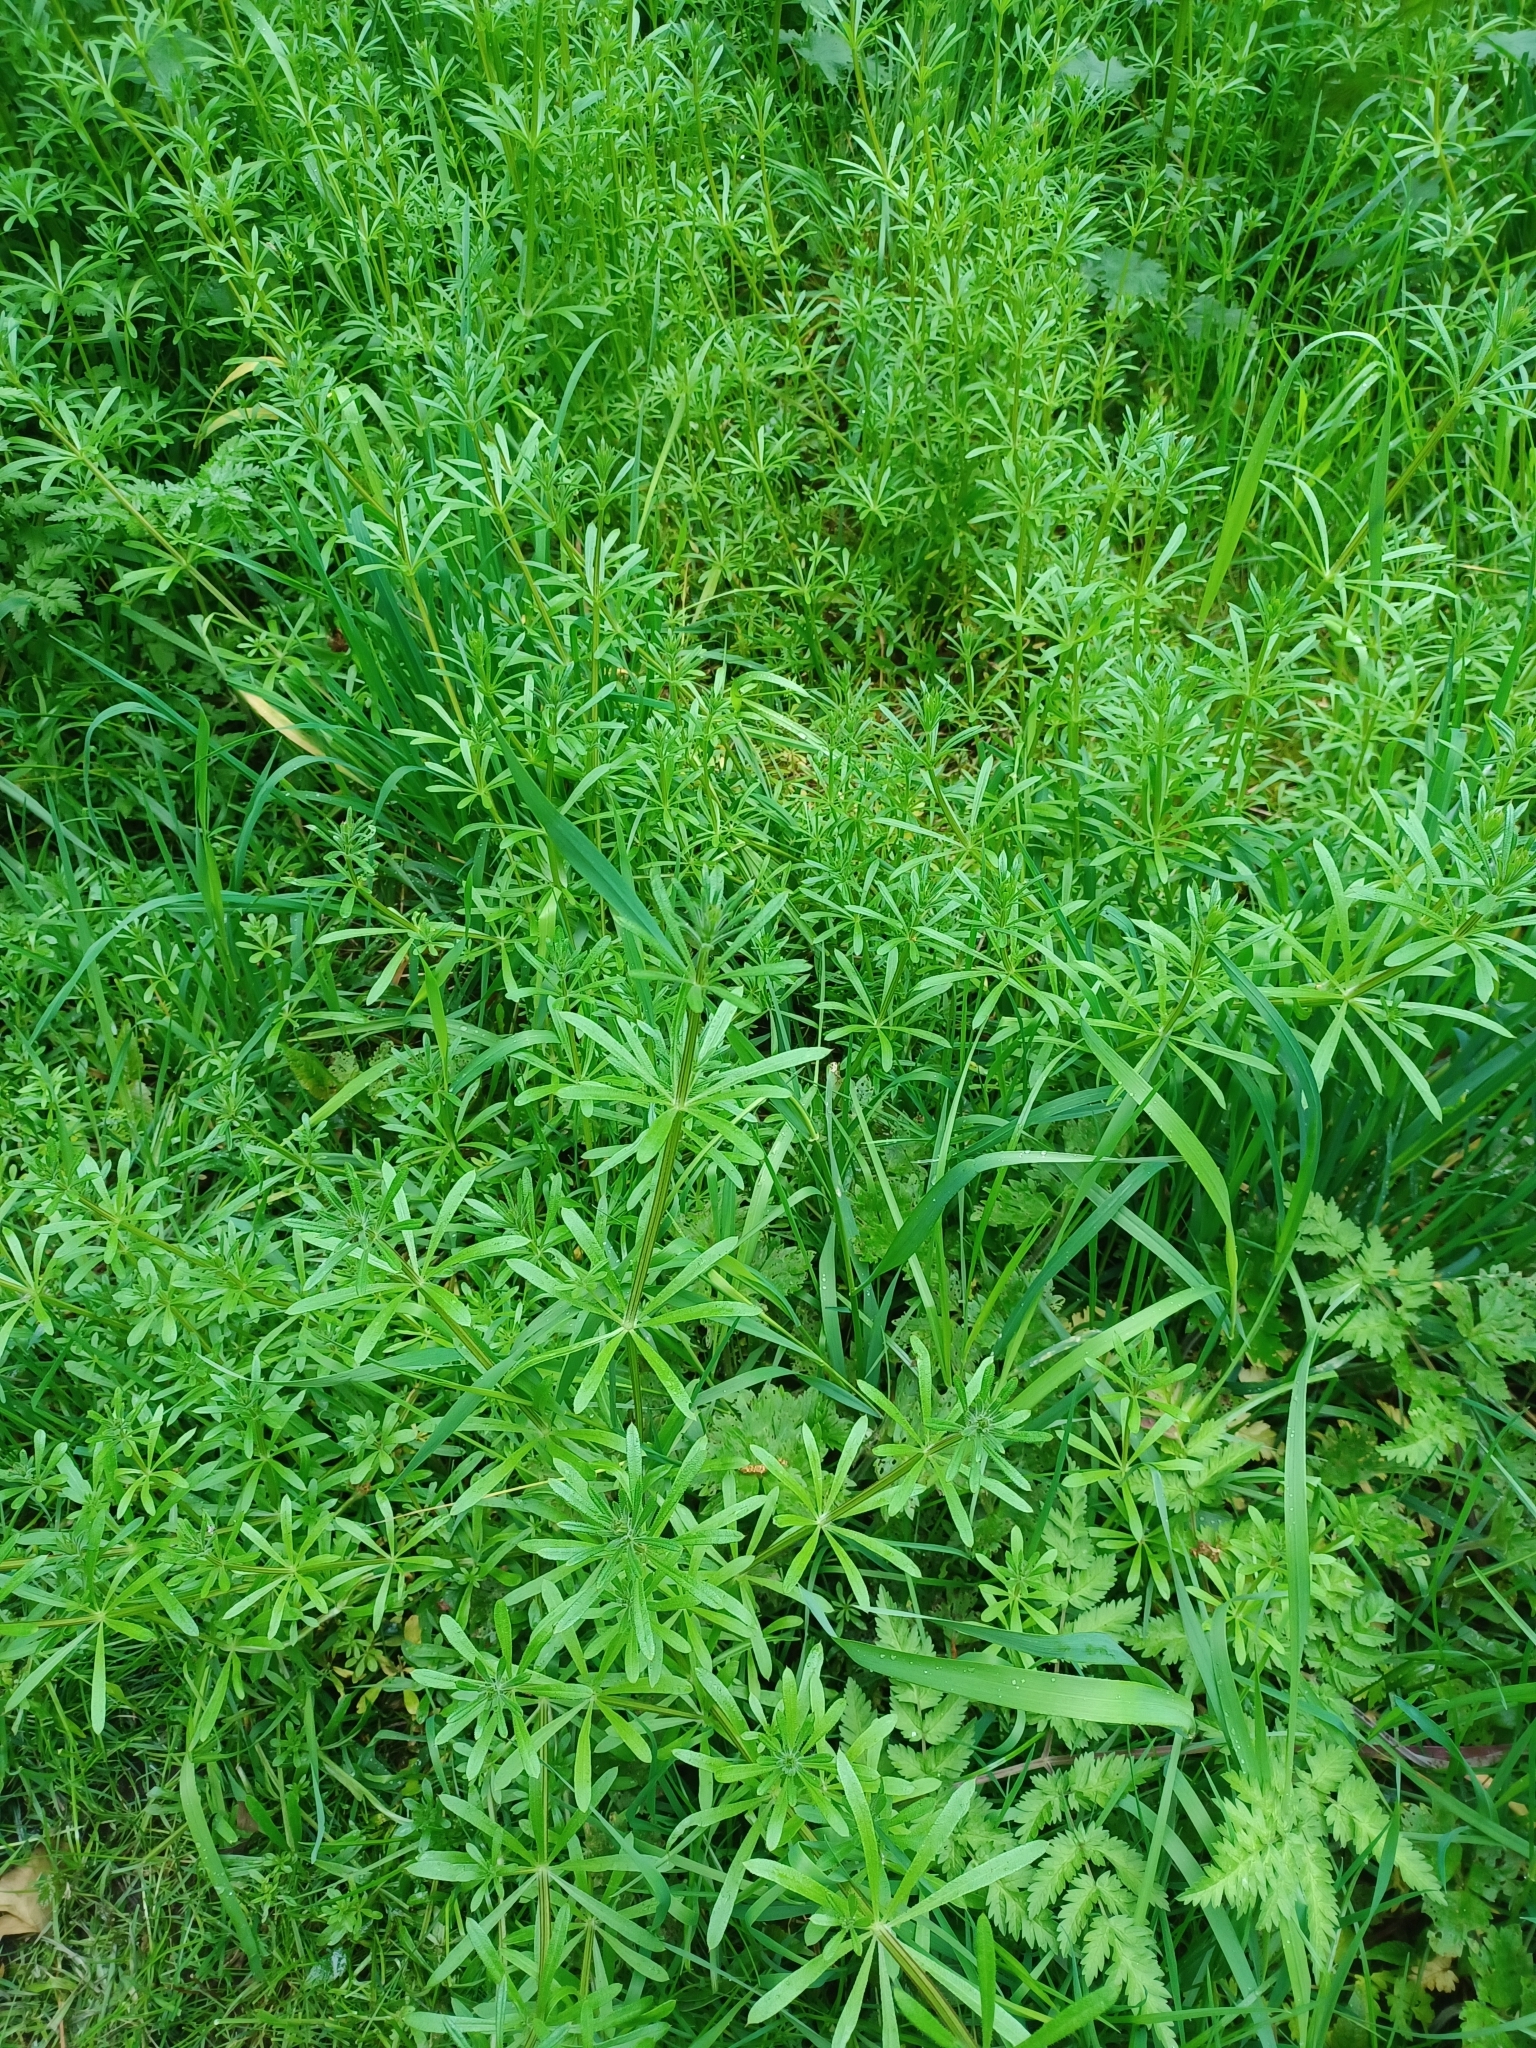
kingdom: Plantae
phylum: Tracheophyta
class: Magnoliopsida
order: Gentianales
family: Rubiaceae
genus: Galium
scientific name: Galium aparine
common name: Cleavers
